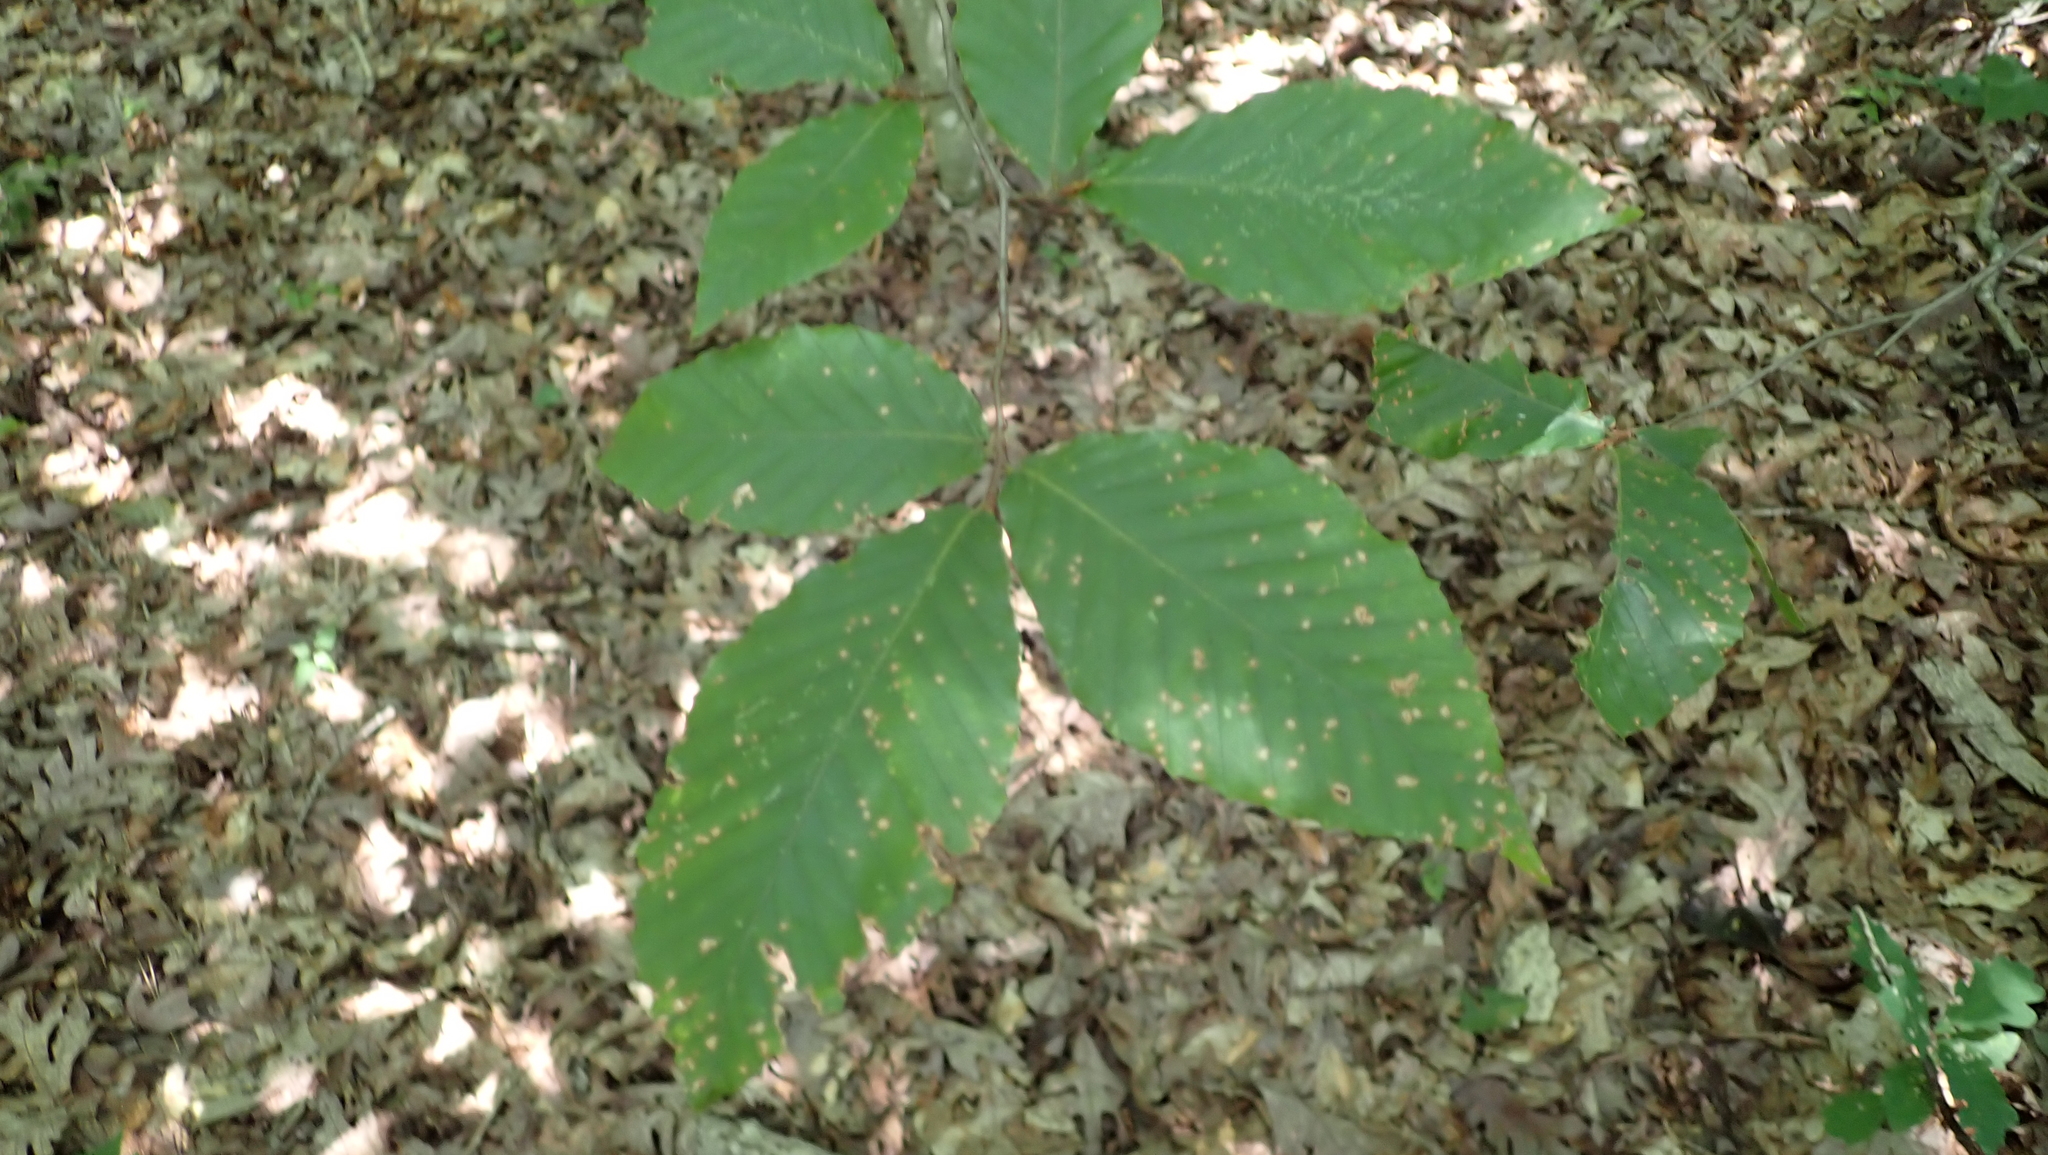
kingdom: Plantae
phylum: Tracheophyta
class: Magnoliopsida
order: Fagales
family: Fagaceae
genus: Fagus
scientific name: Fagus grandifolia
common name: American beech
